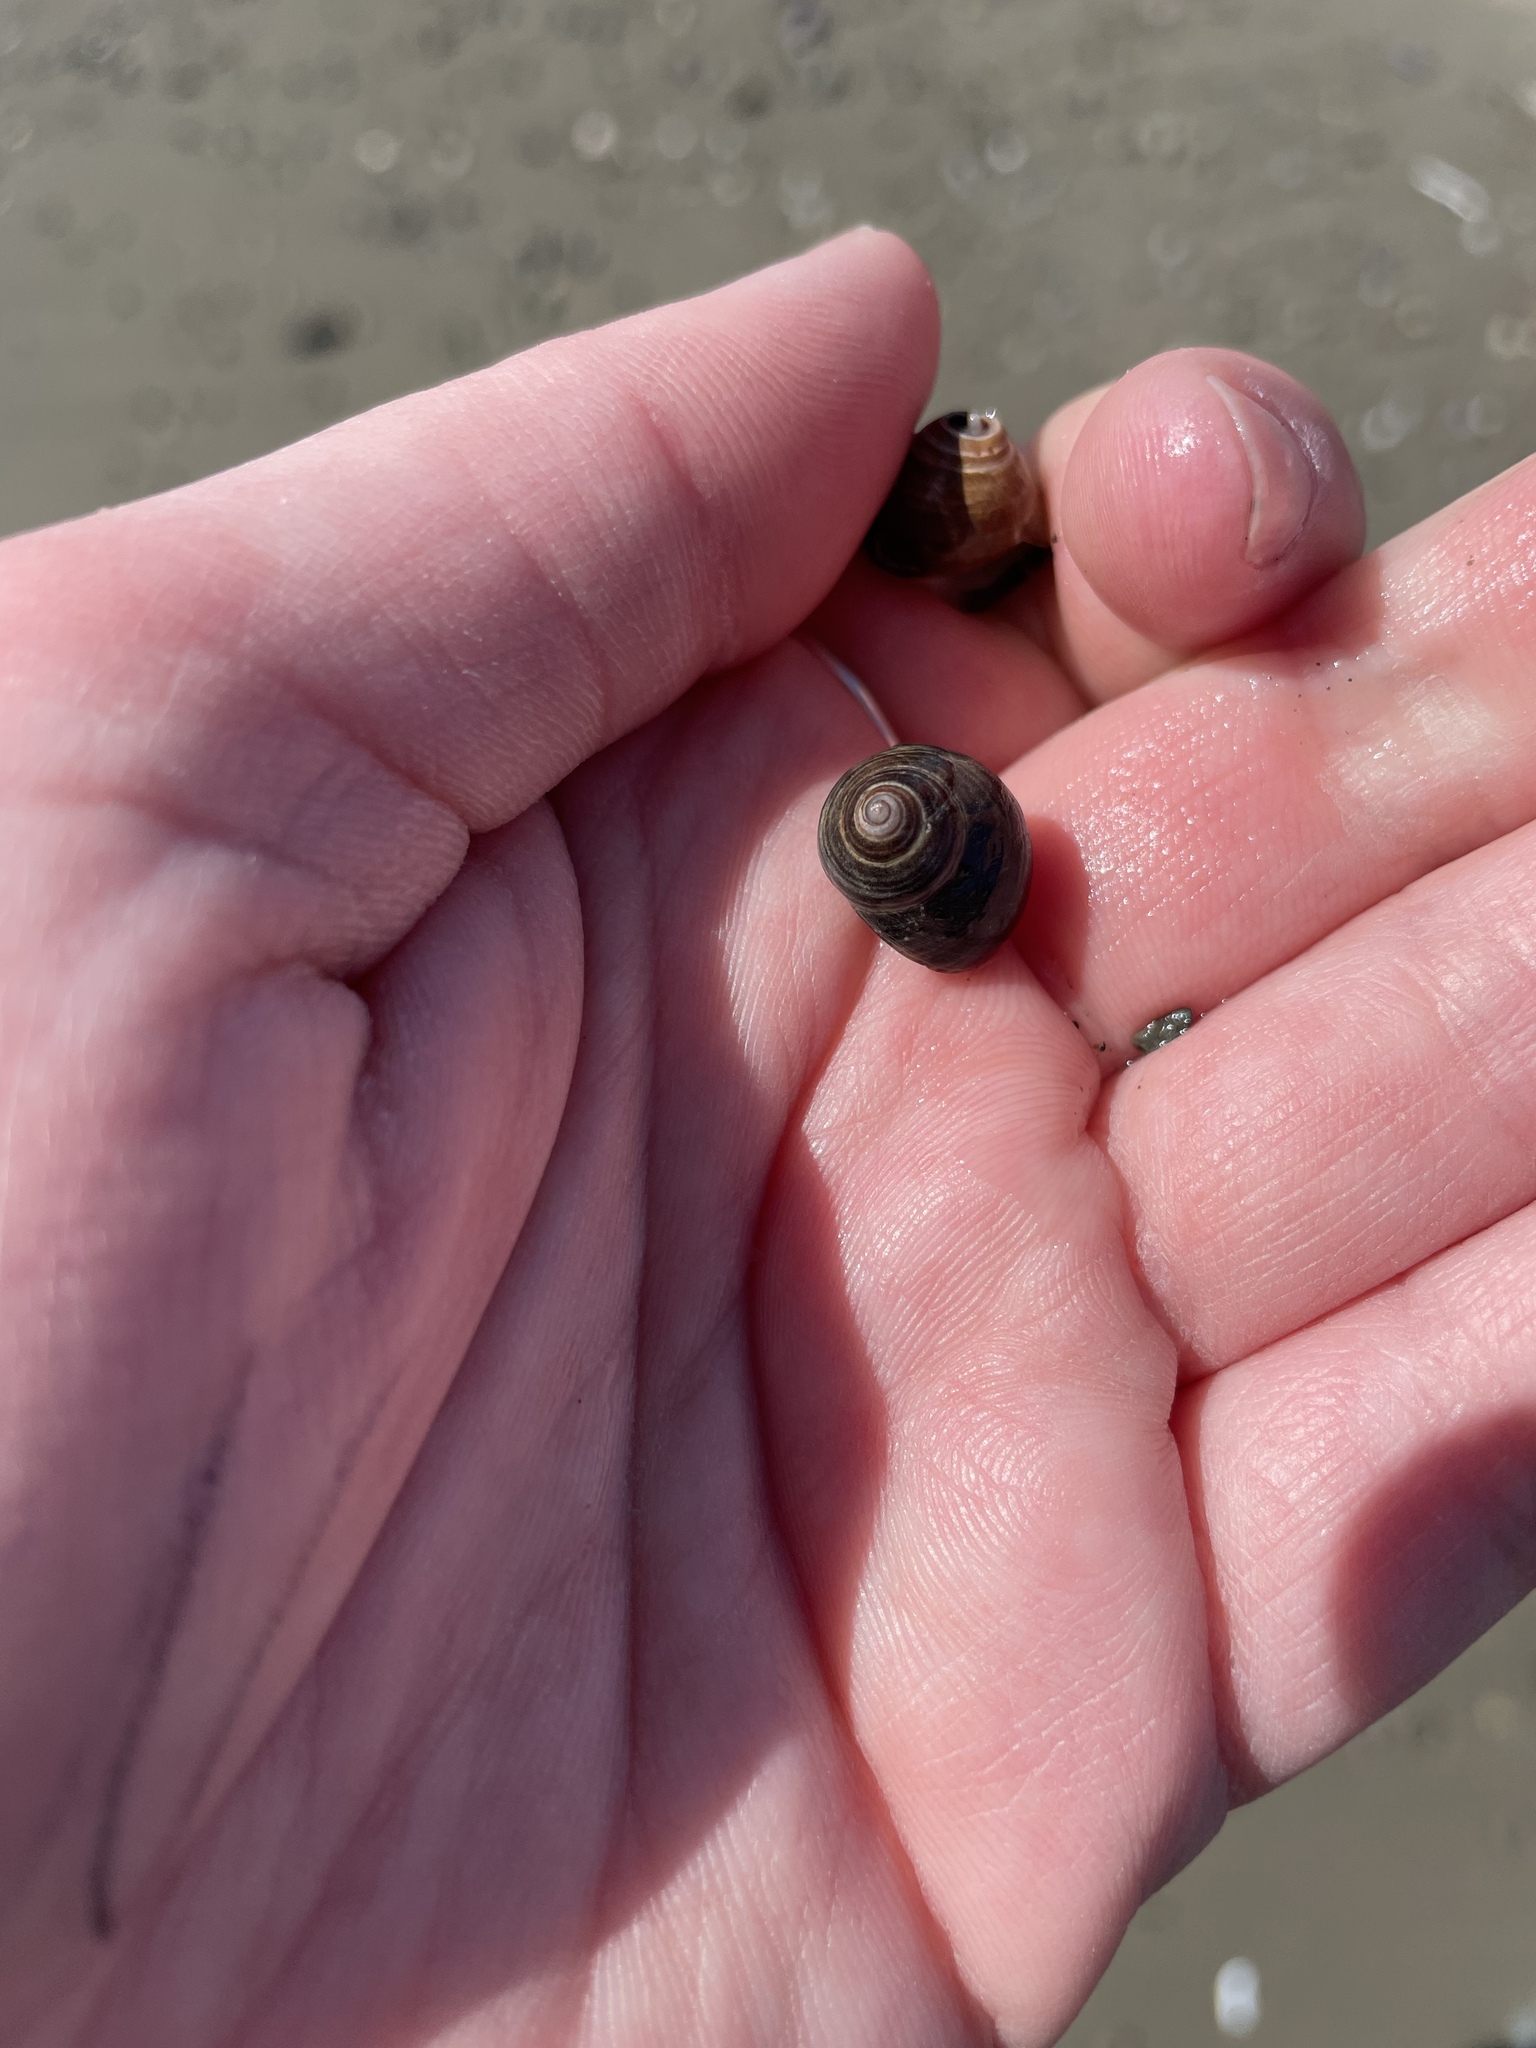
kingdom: Animalia
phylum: Mollusca
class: Gastropoda
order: Littorinimorpha
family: Littorinidae
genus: Littorina
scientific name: Littorina littorea
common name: Common periwinkle
